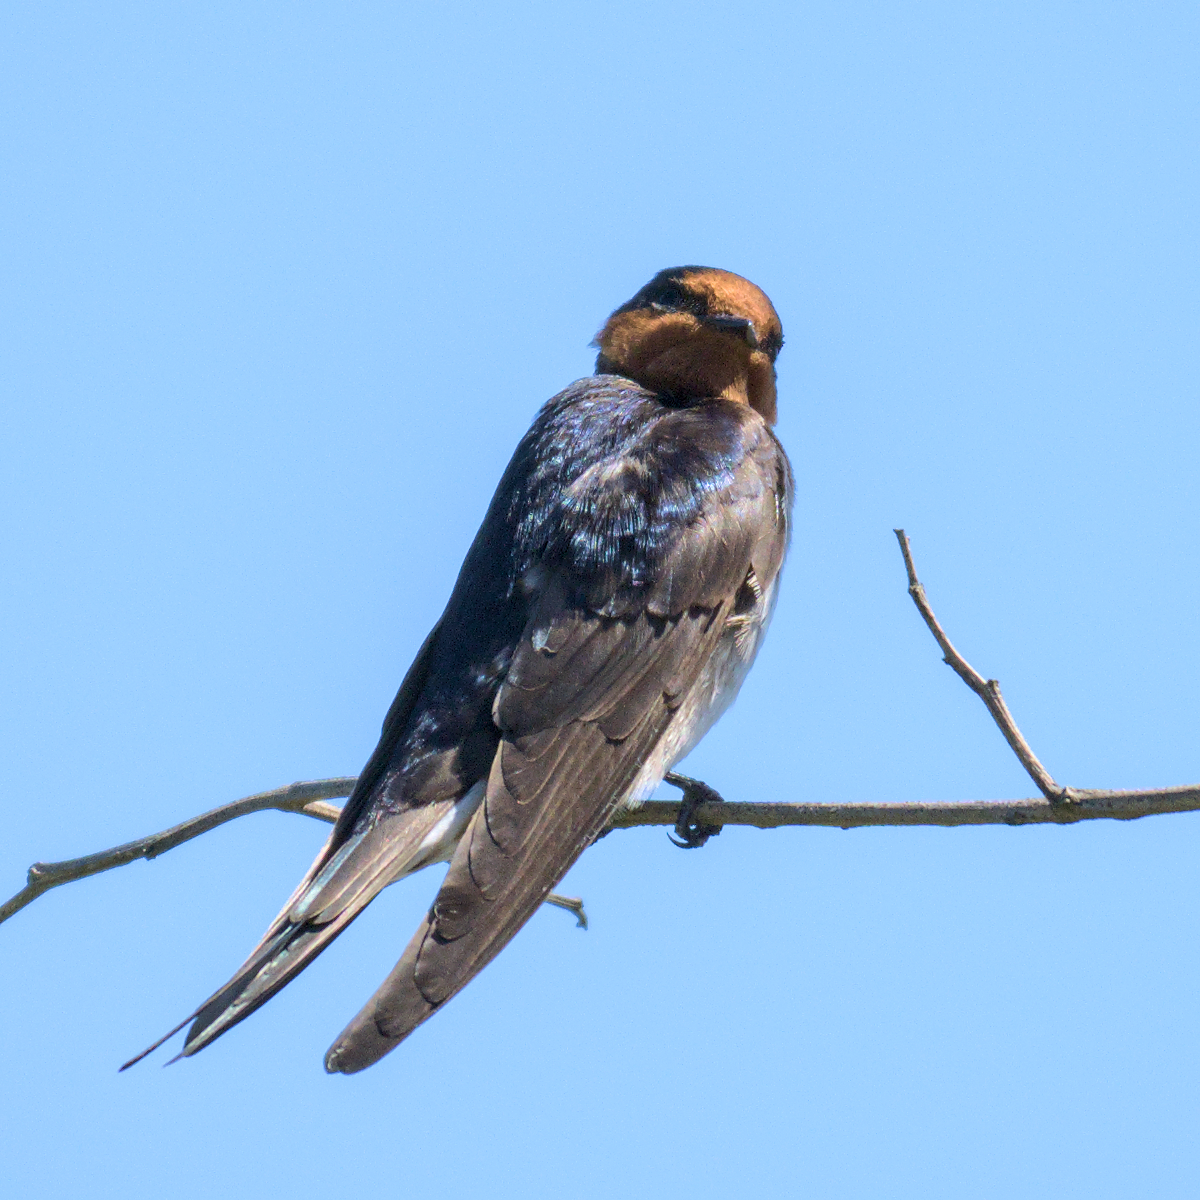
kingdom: Animalia
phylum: Chordata
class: Aves
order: Passeriformes
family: Hirundinidae
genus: Hirundo
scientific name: Hirundo neoxena
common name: Welcome swallow
